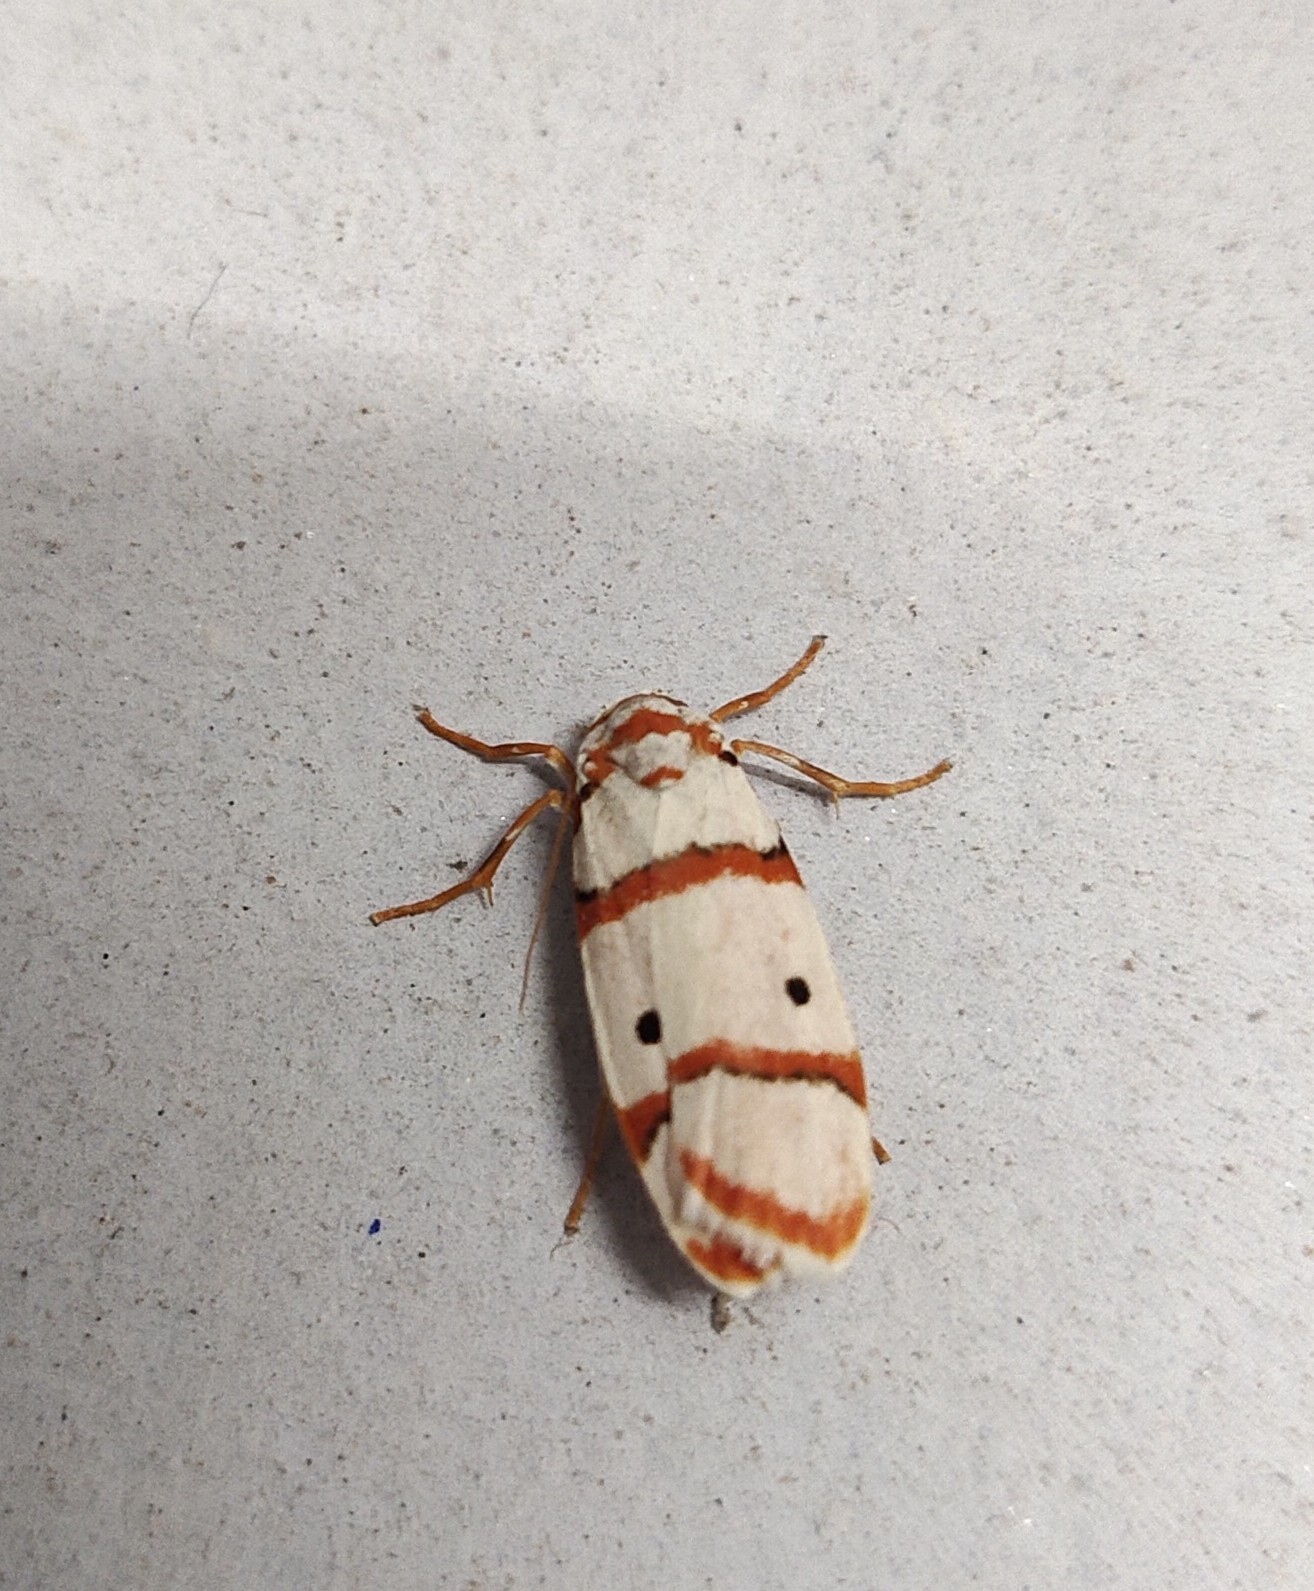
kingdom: Animalia
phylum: Arthropoda
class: Insecta
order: Lepidoptera
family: Erebidae
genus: Cyana
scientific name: Cyana peregrina
